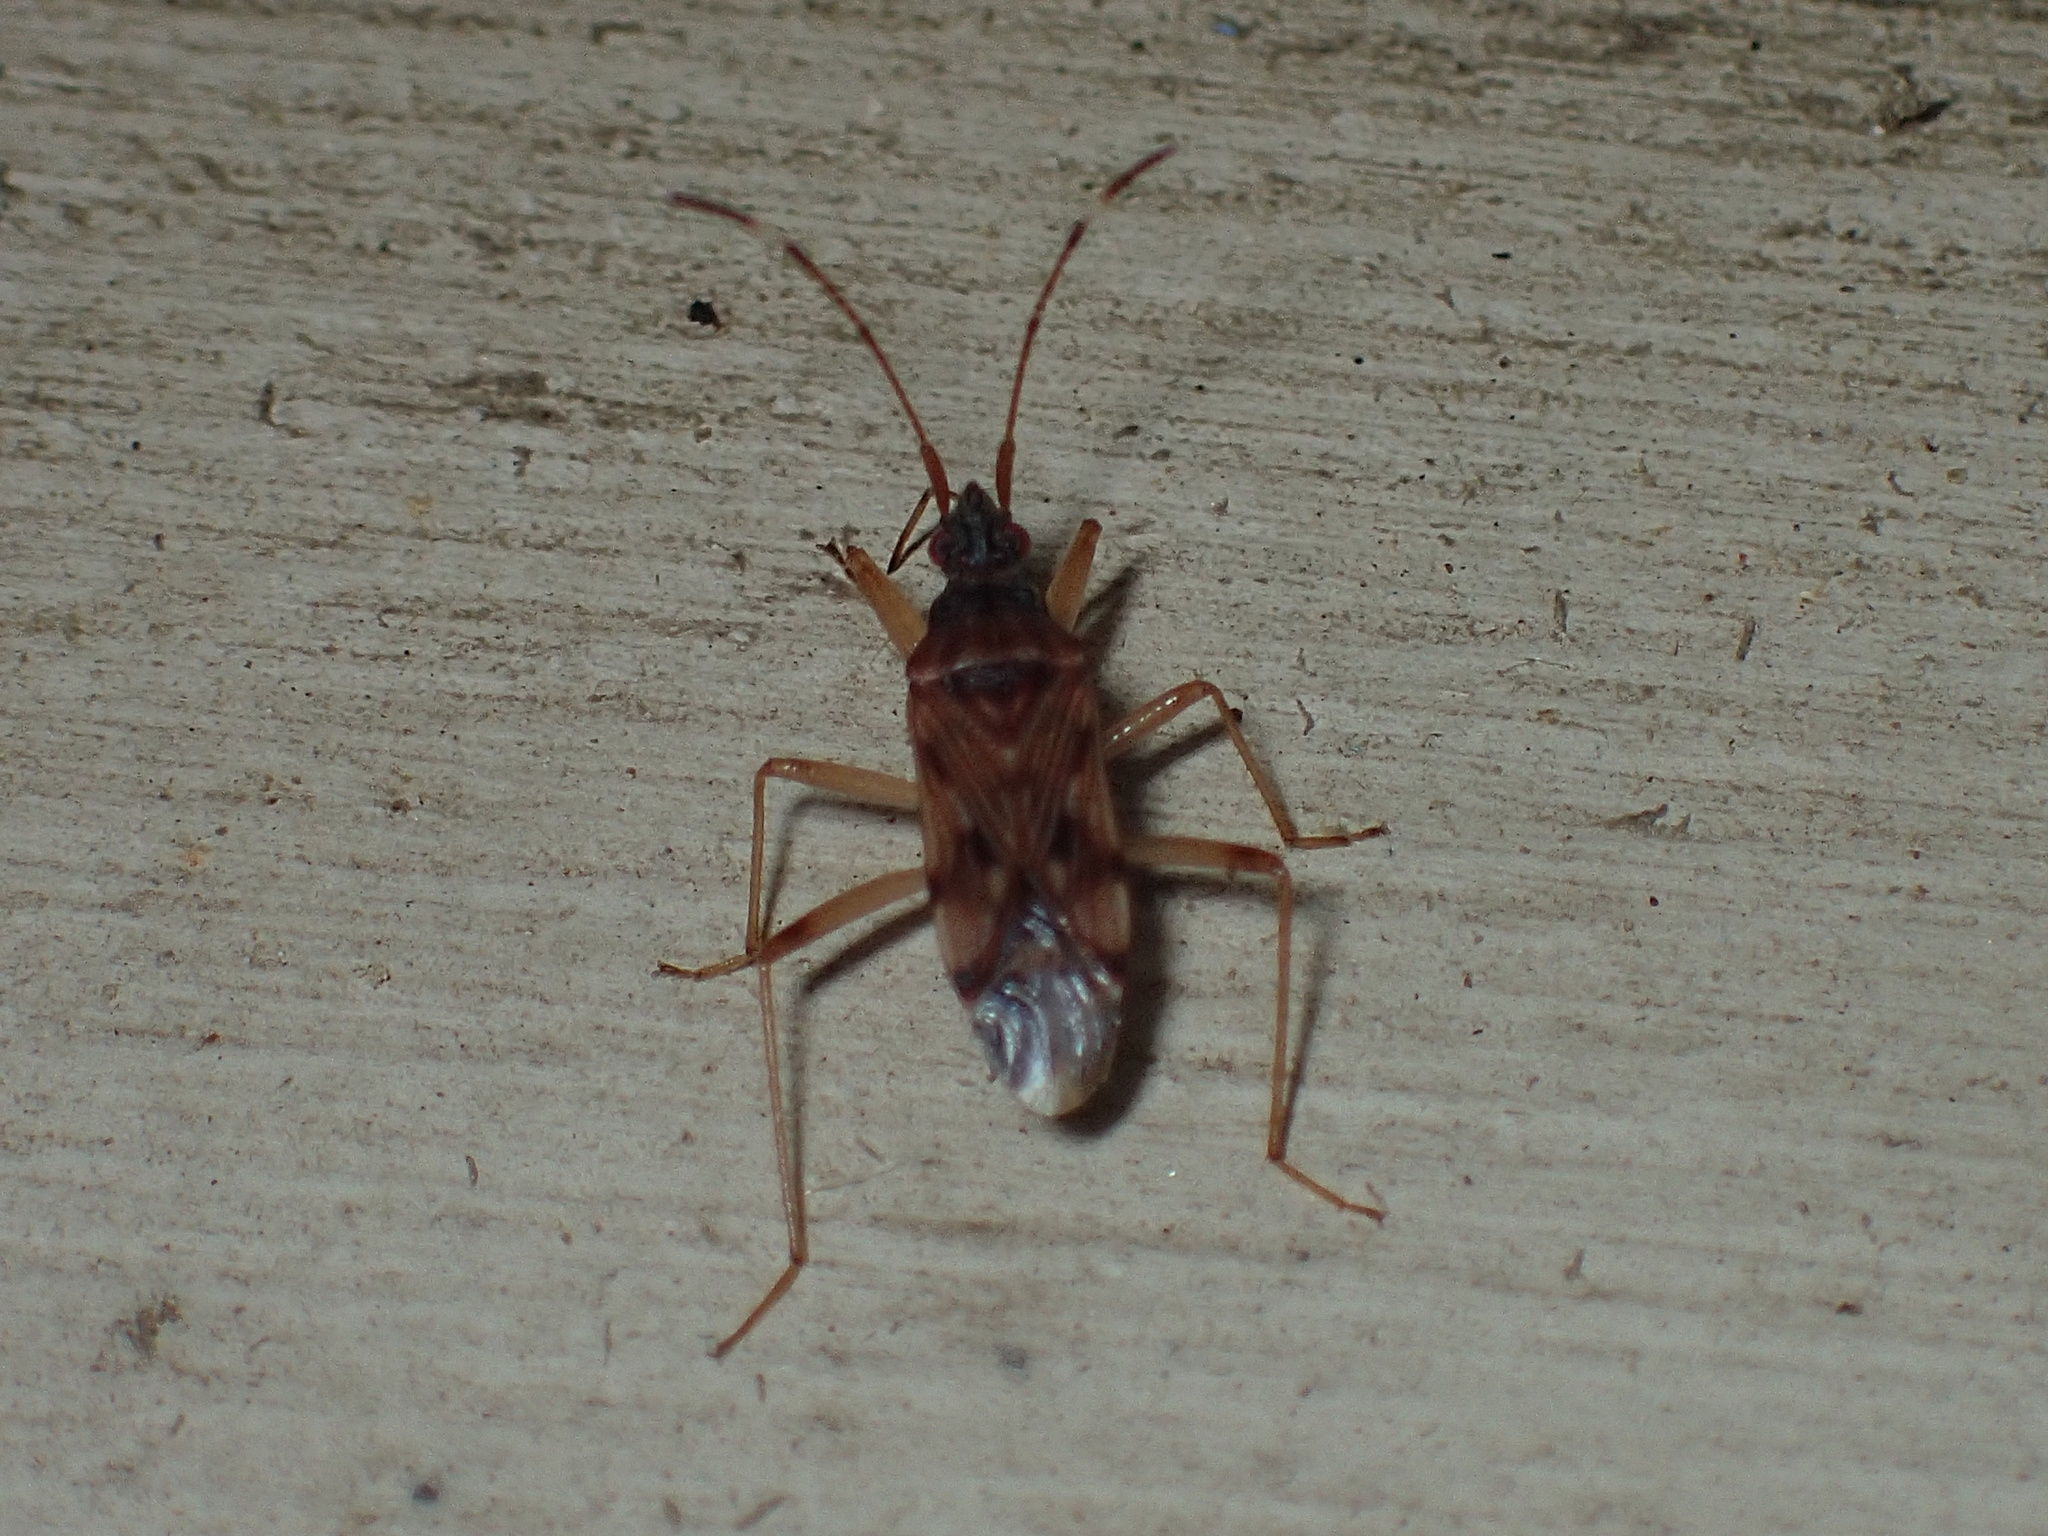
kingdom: Animalia
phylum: Arthropoda
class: Insecta
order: Hemiptera
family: Rhyparochromidae
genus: Ozophora
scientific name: Ozophora picturata
